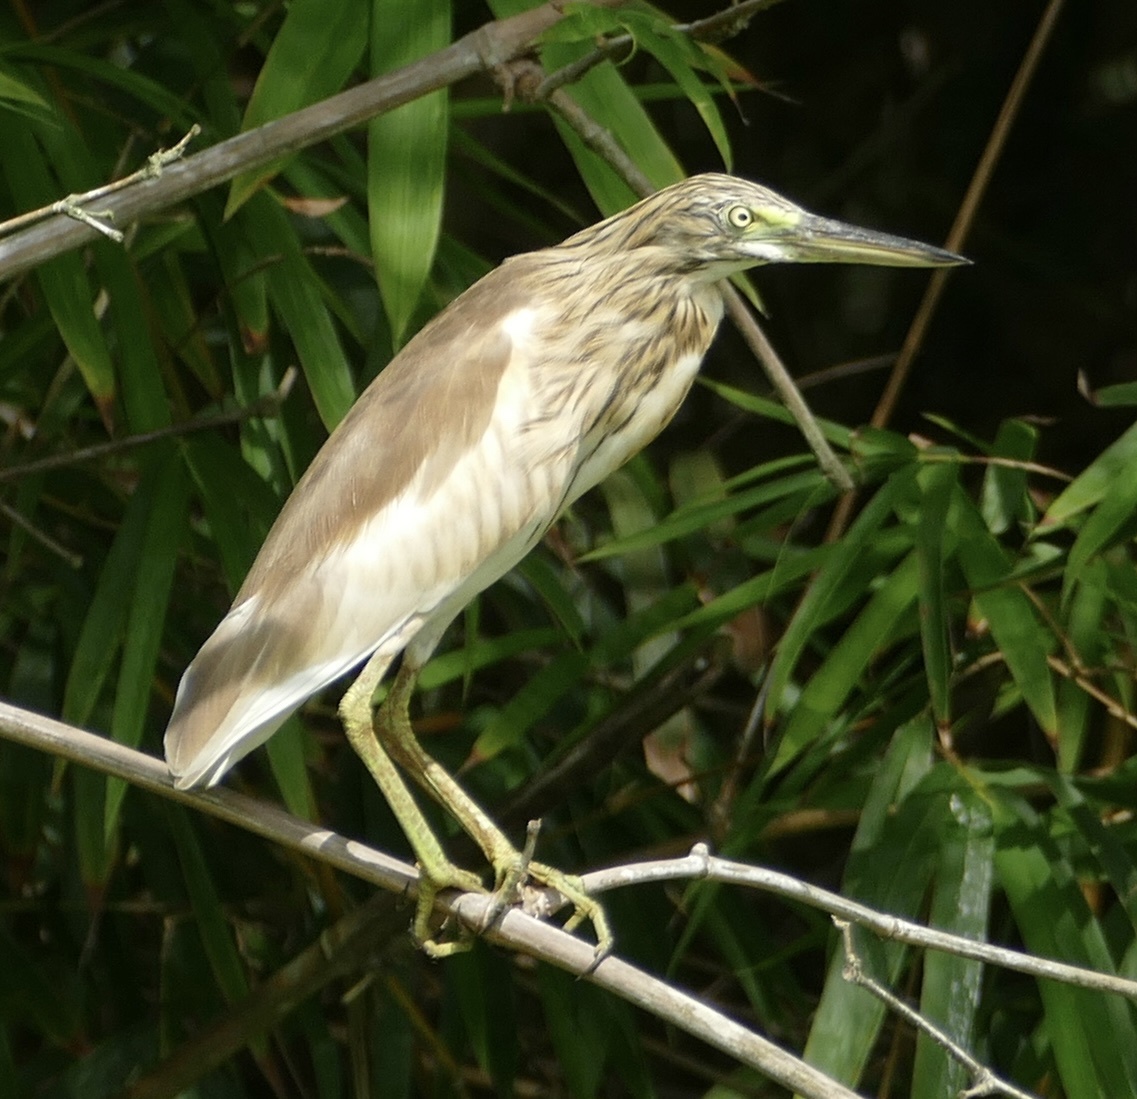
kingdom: Animalia
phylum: Chordata
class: Aves
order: Pelecaniformes
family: Ardeidae
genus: Ardeola
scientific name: Ardeola ralloides
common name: Squacco heron
